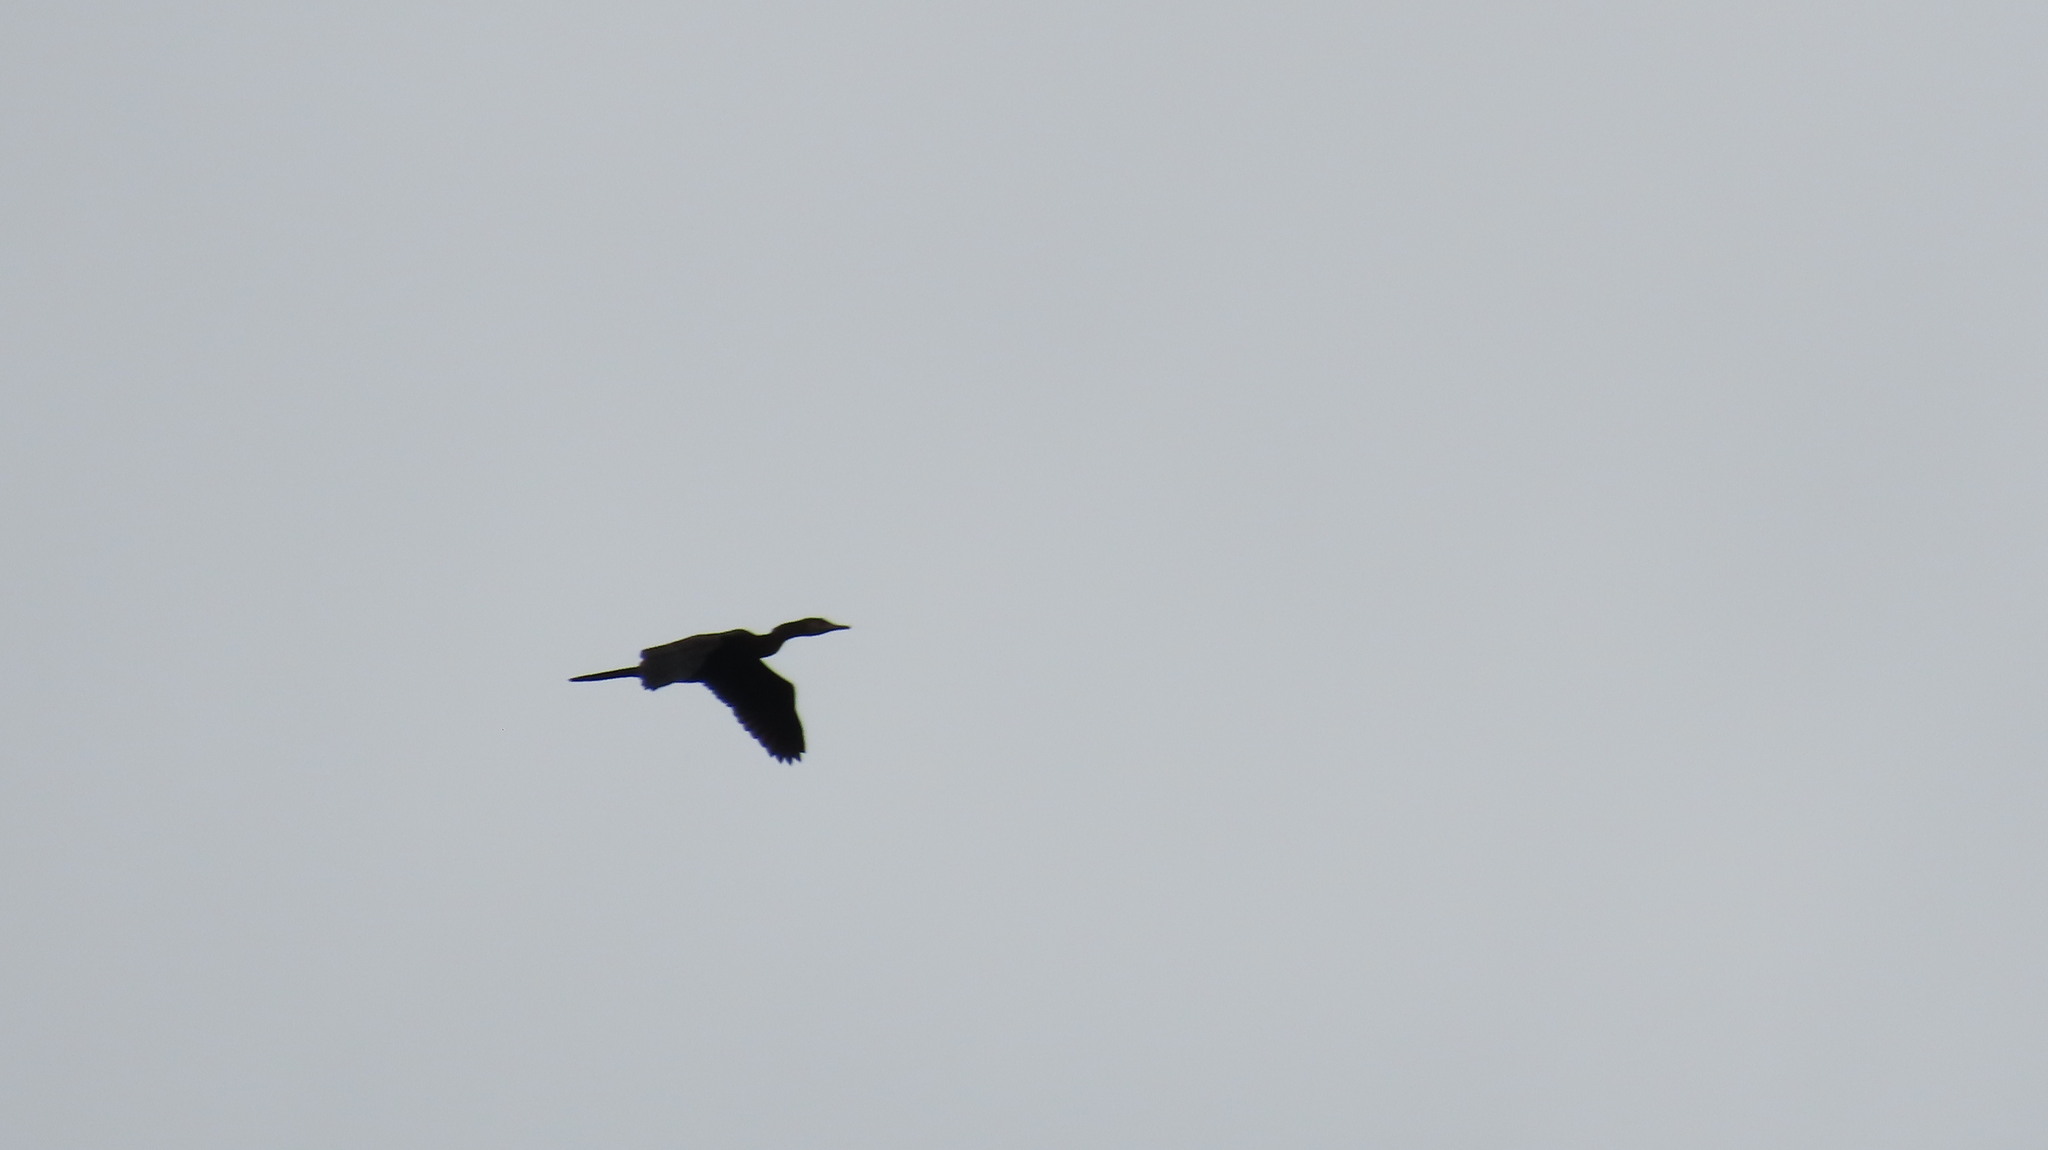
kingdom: Animalia
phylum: Chordata
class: Aves
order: Suliformes
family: Phalacrocoracidae
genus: Microcarbo
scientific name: Microcarbo niger
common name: Little cormorant
